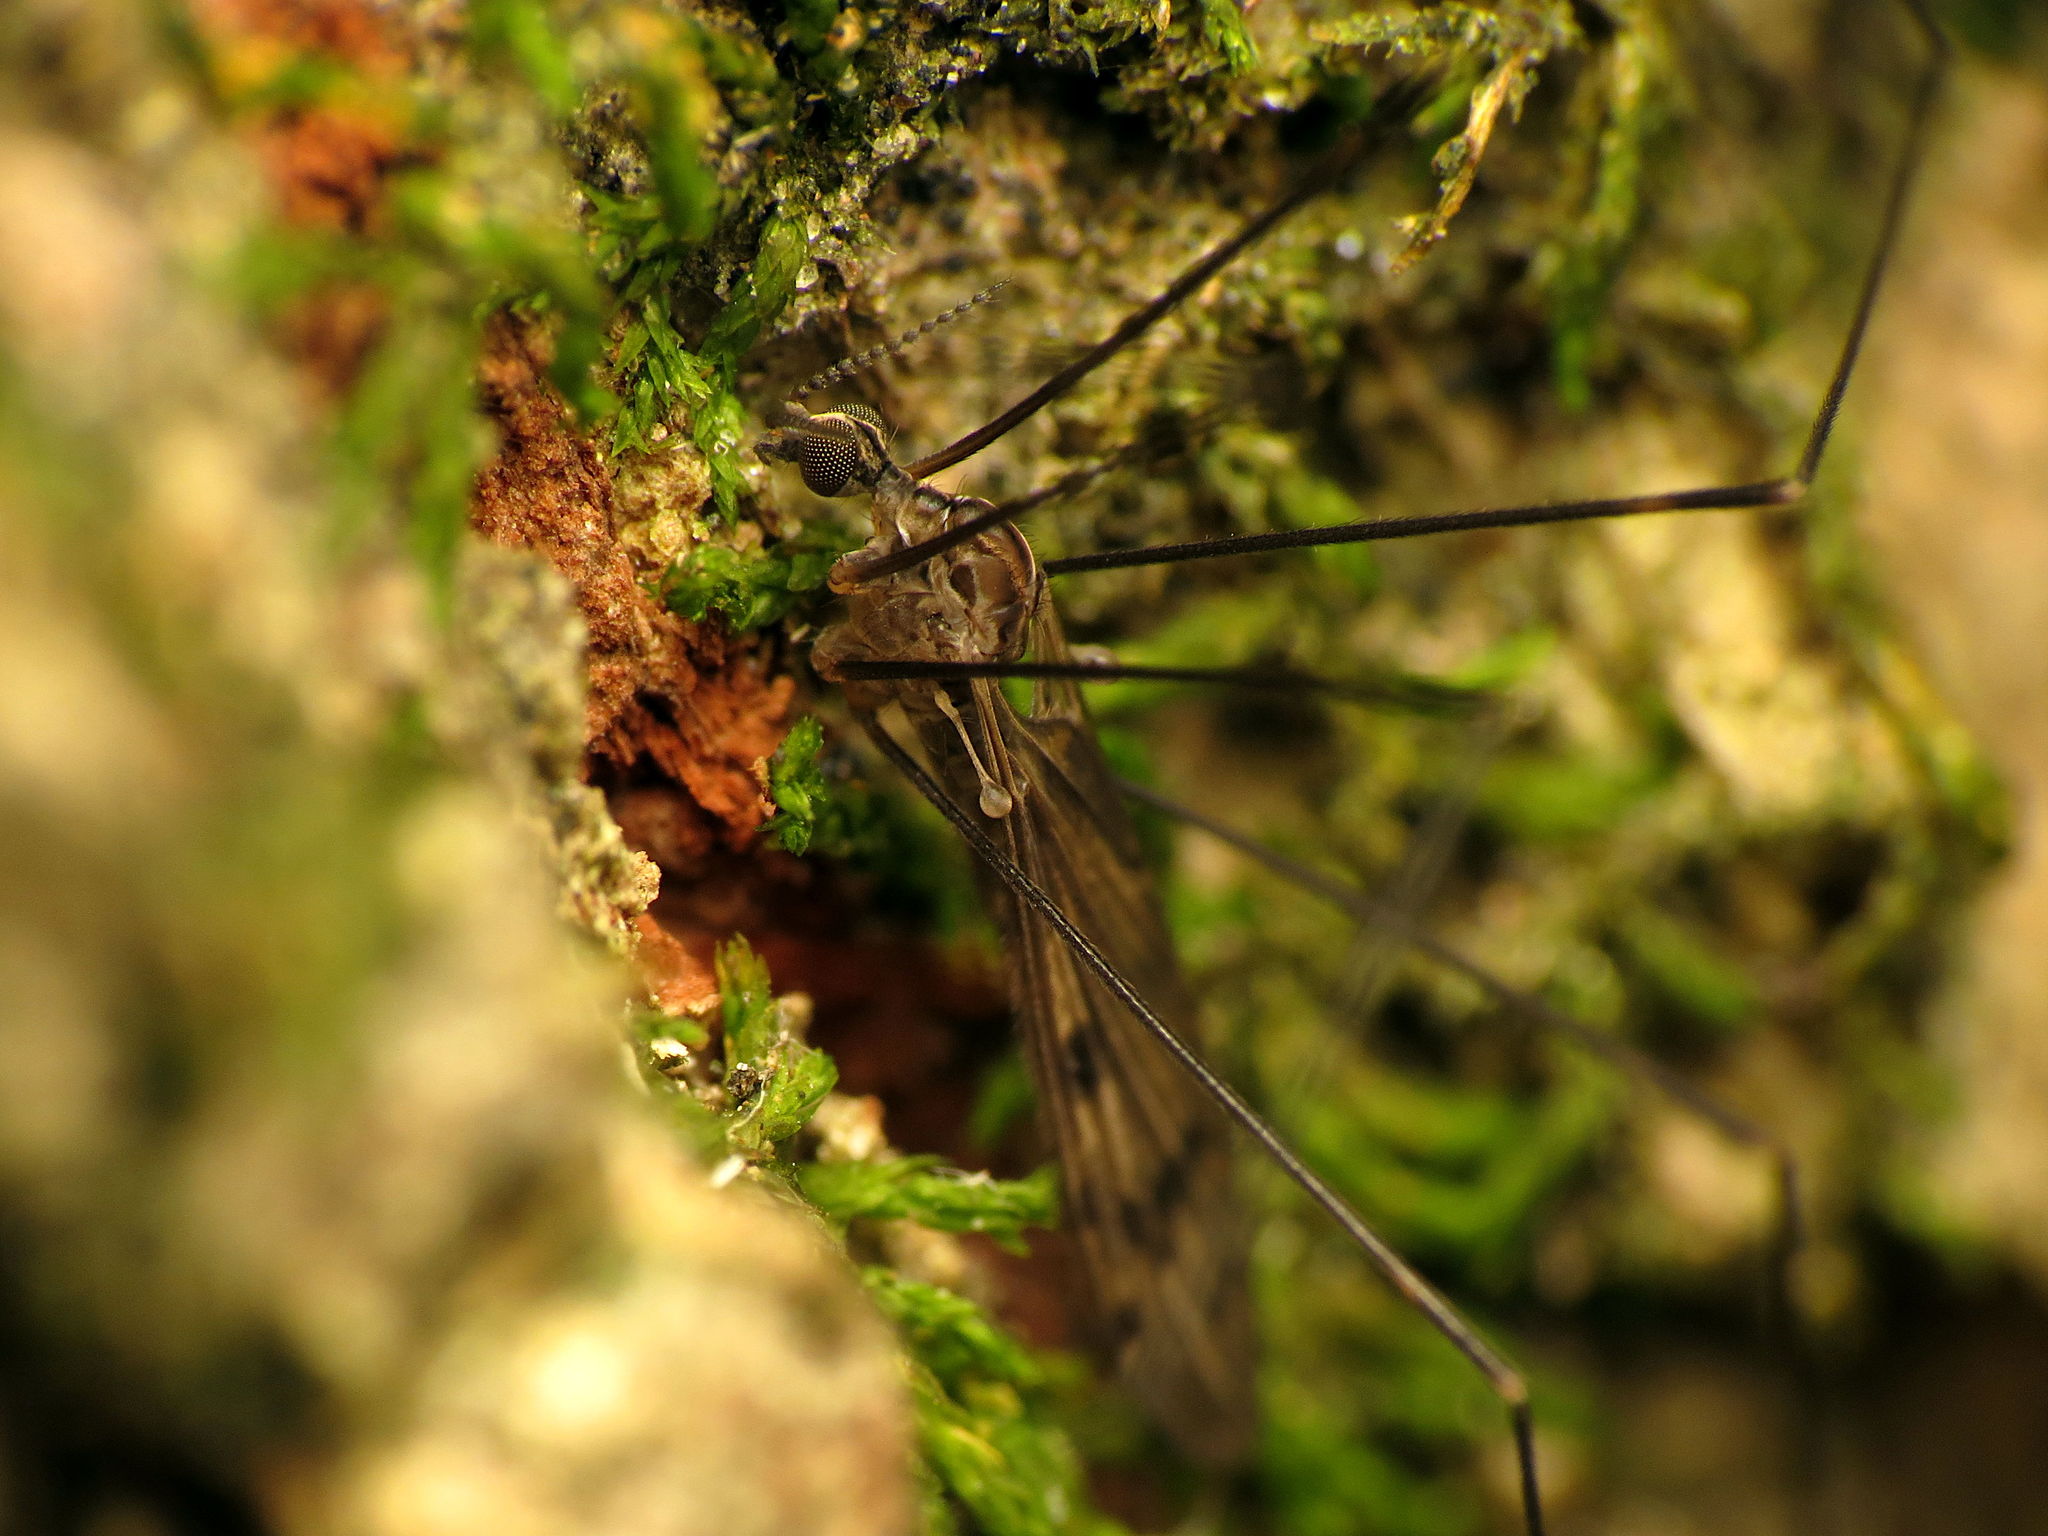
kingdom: Animalia
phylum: Arthropoda
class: Insecta
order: Diptera
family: Limoniidae
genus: Metalimnobia
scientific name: Metalimnobia novaeangliae
